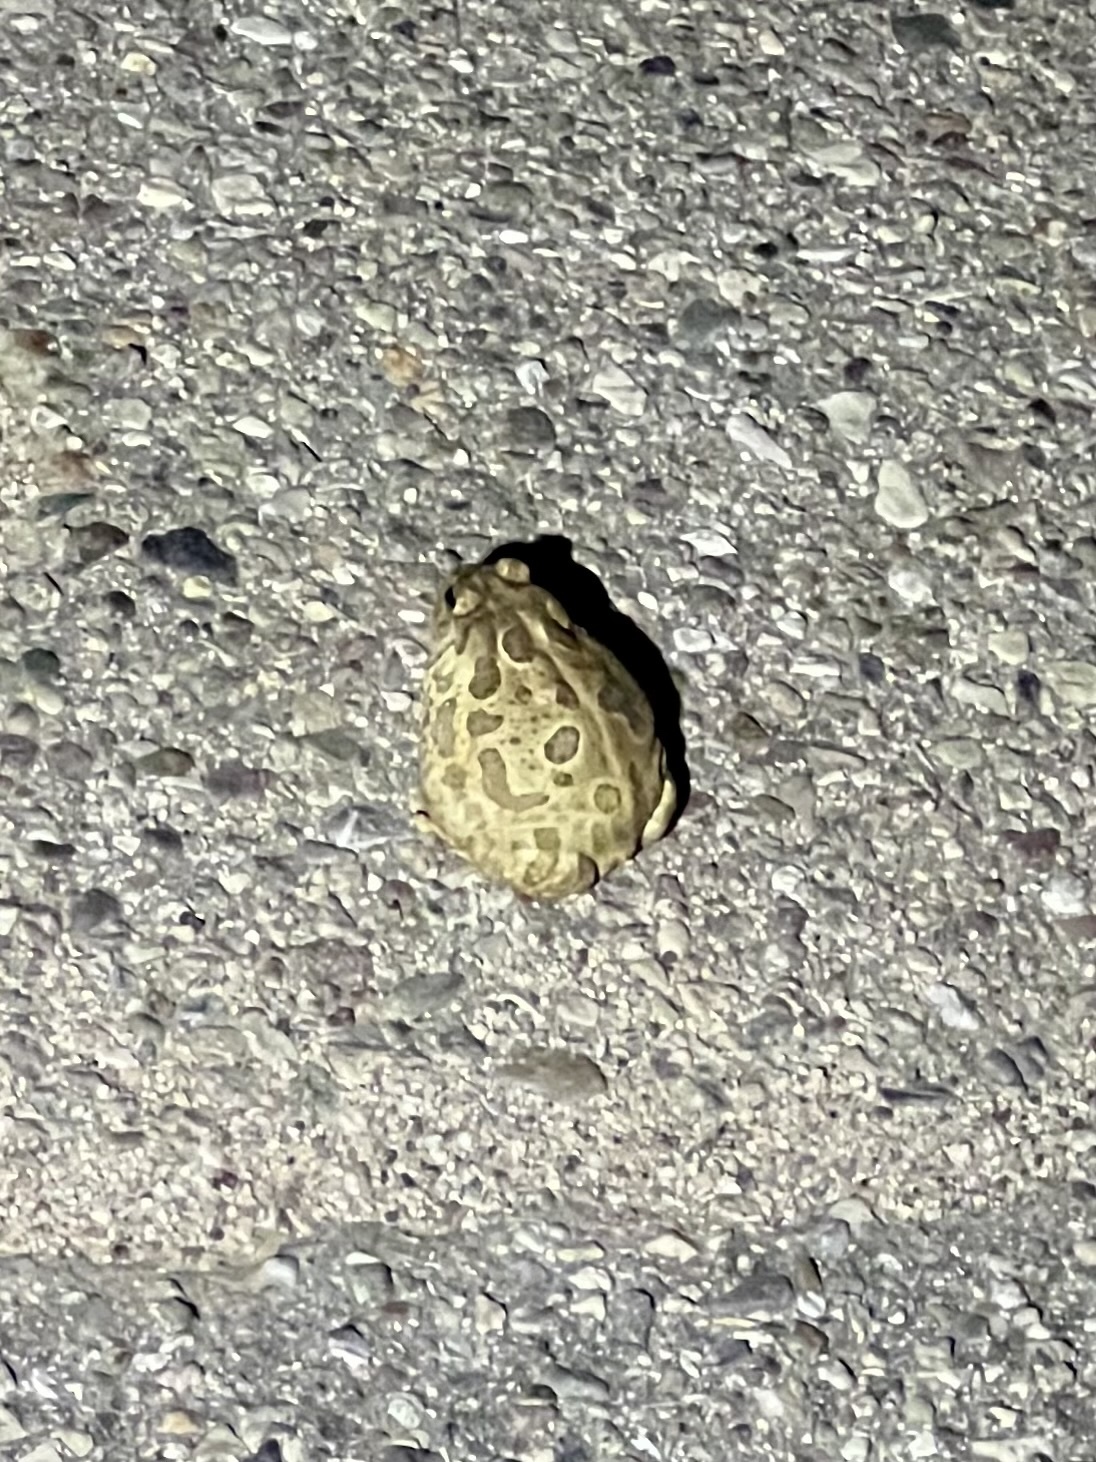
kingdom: Animalia
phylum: Chordata
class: Amphibia
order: Anura
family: Bufonidae
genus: Anaxyrus
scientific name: Anaxyrus cognatus
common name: Great plains toad
